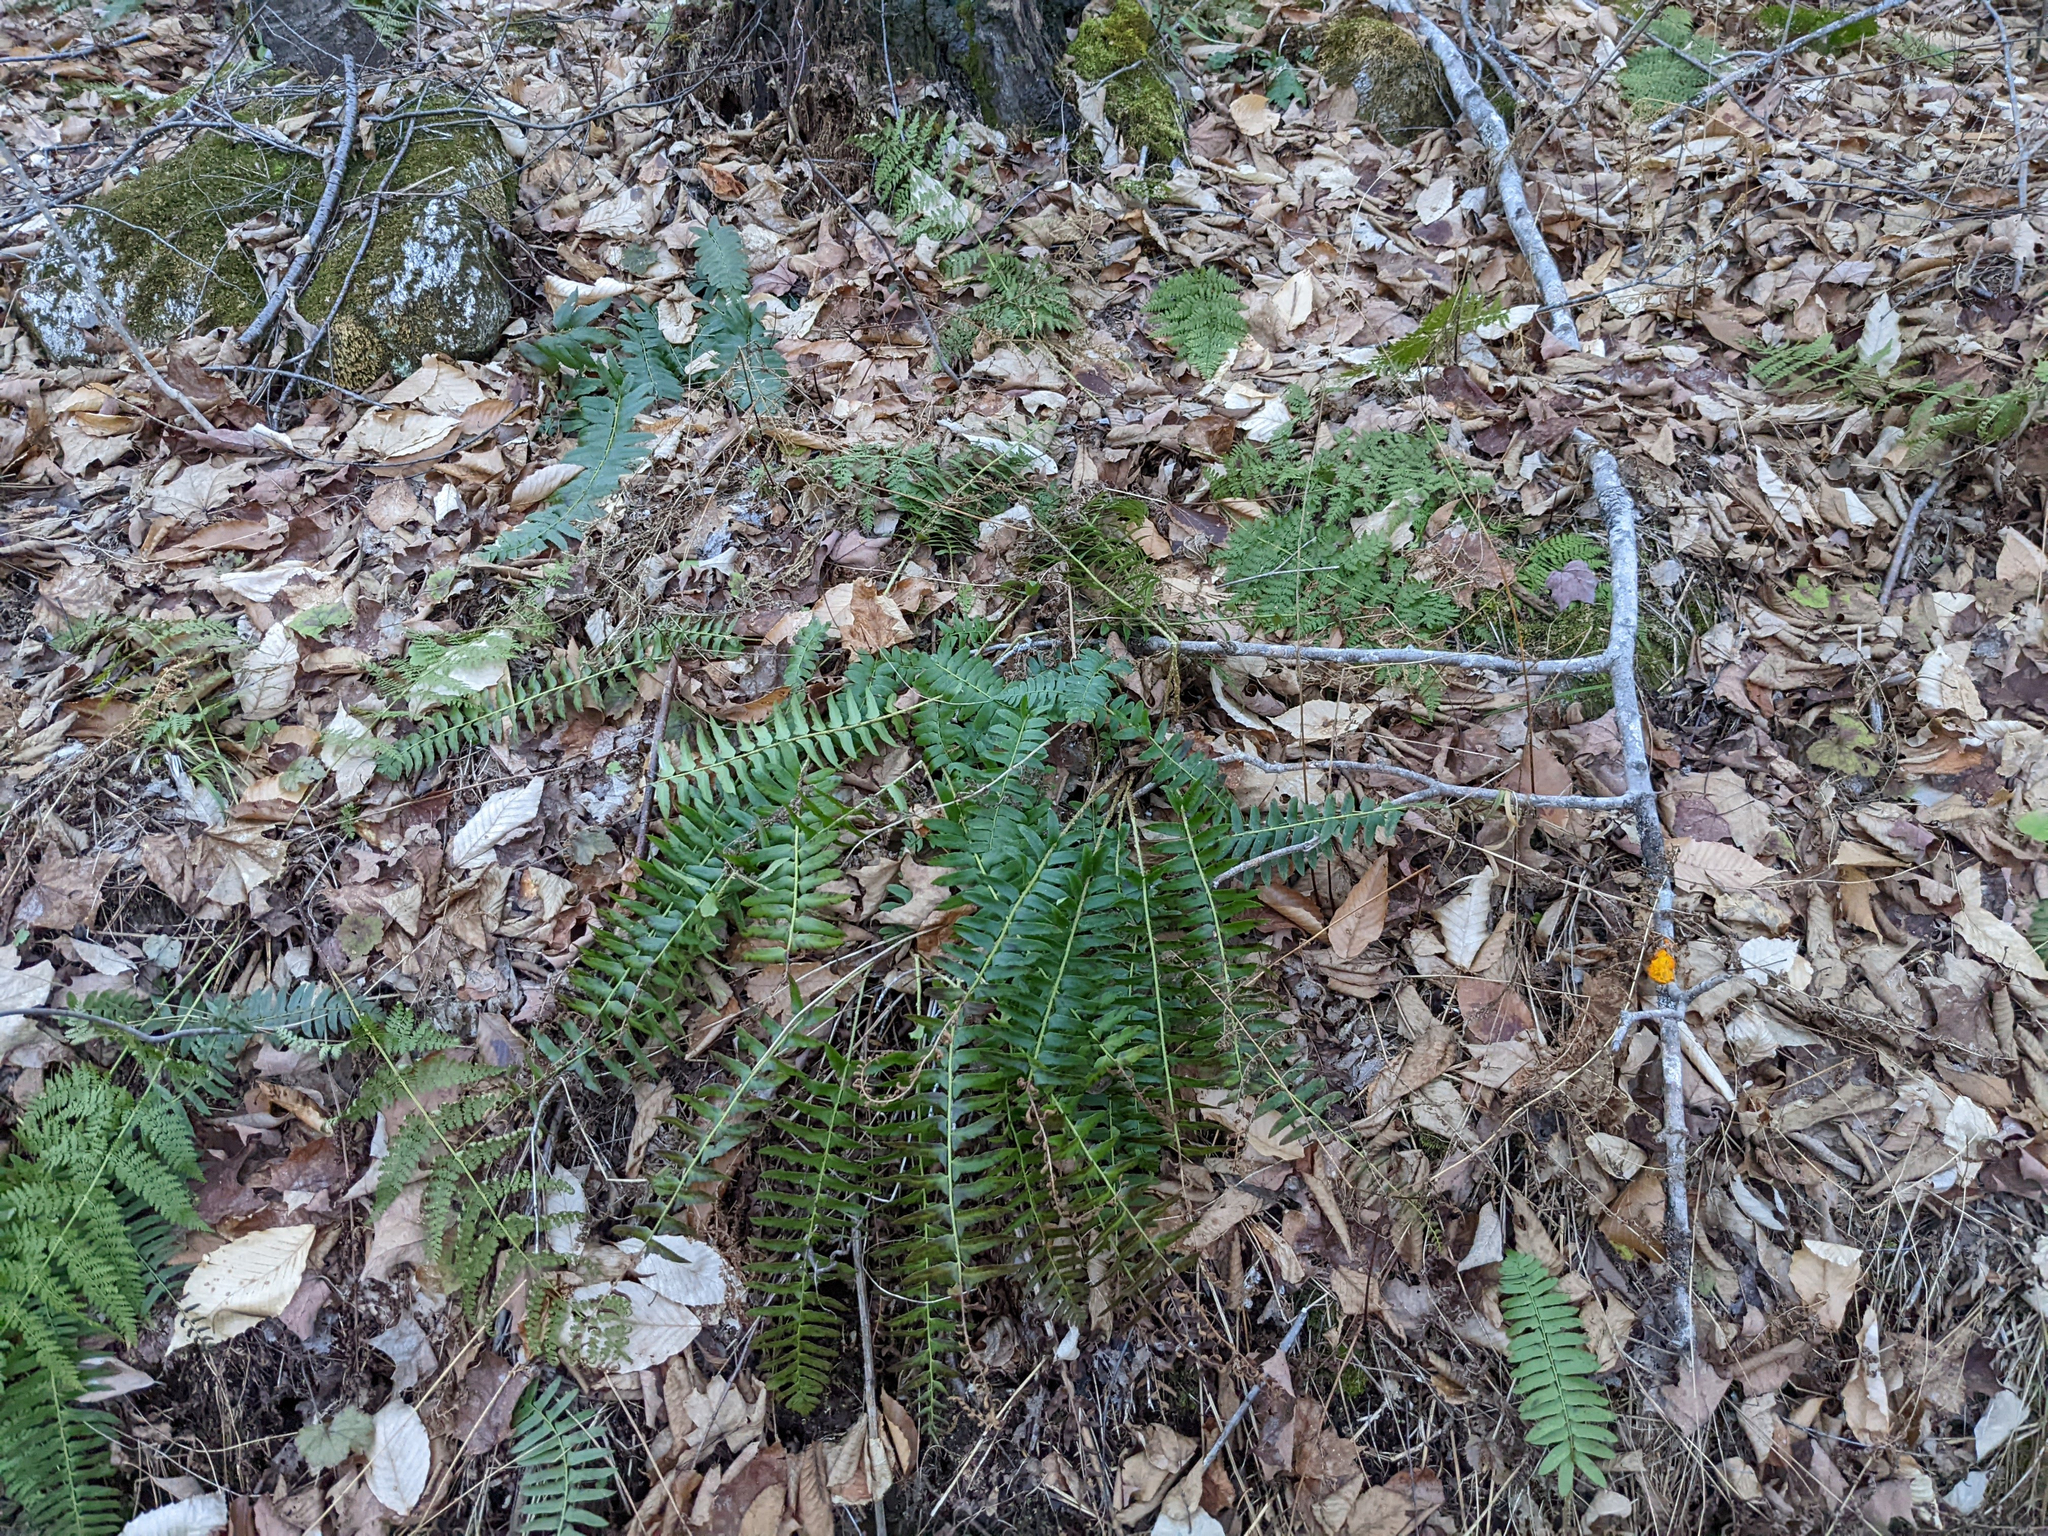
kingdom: Plantae
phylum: Tracheophyta
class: Polypodiopsida
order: Polypodiales
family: Dryopteridaceae
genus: Polystichum
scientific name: Polystichum acrostichoides
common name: Christmas fern
